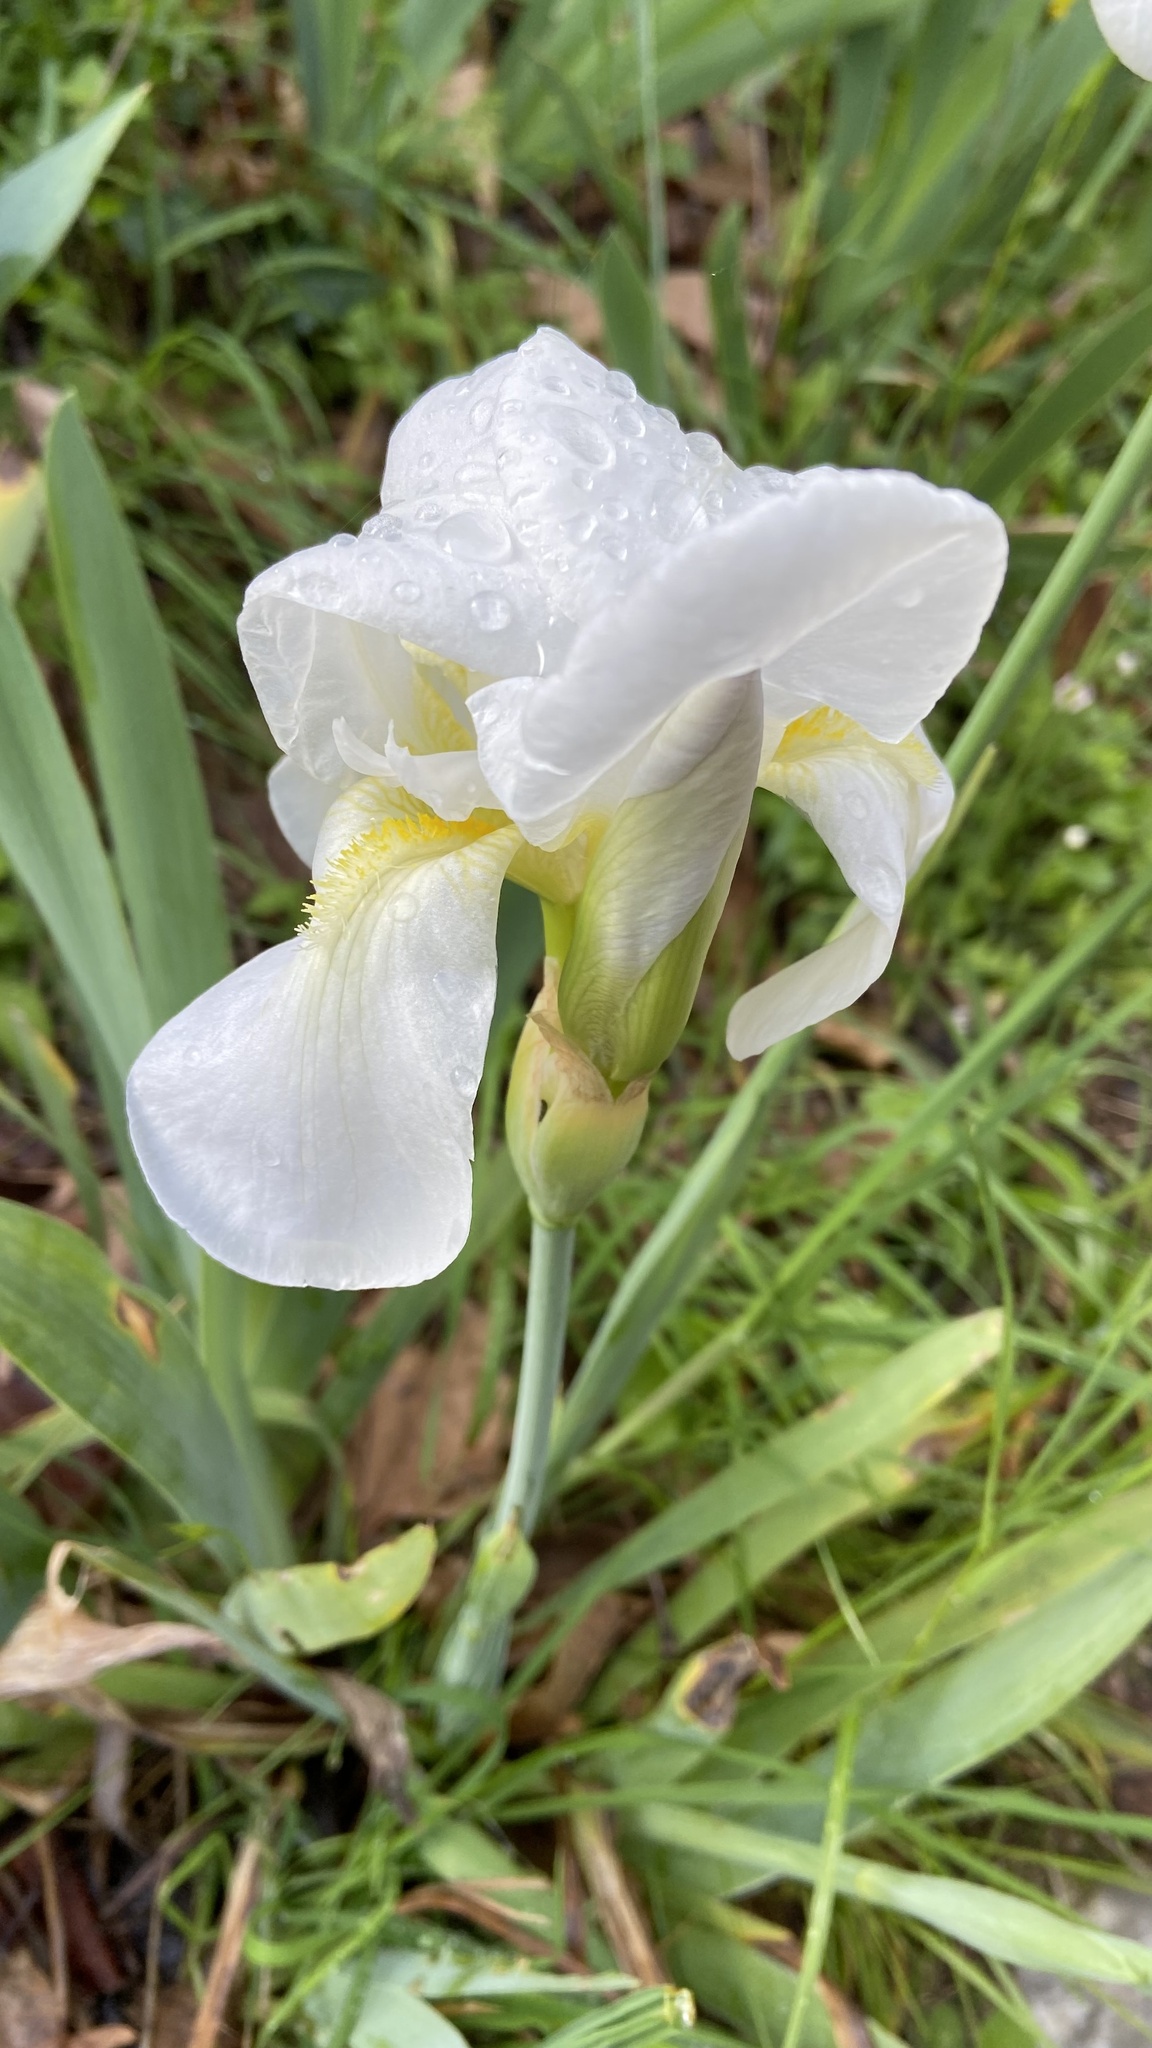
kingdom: Plantae
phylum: Tracheophyta
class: Liliopsida
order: Asparagales
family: Iridaceae
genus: Iris
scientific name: Iris florentina
